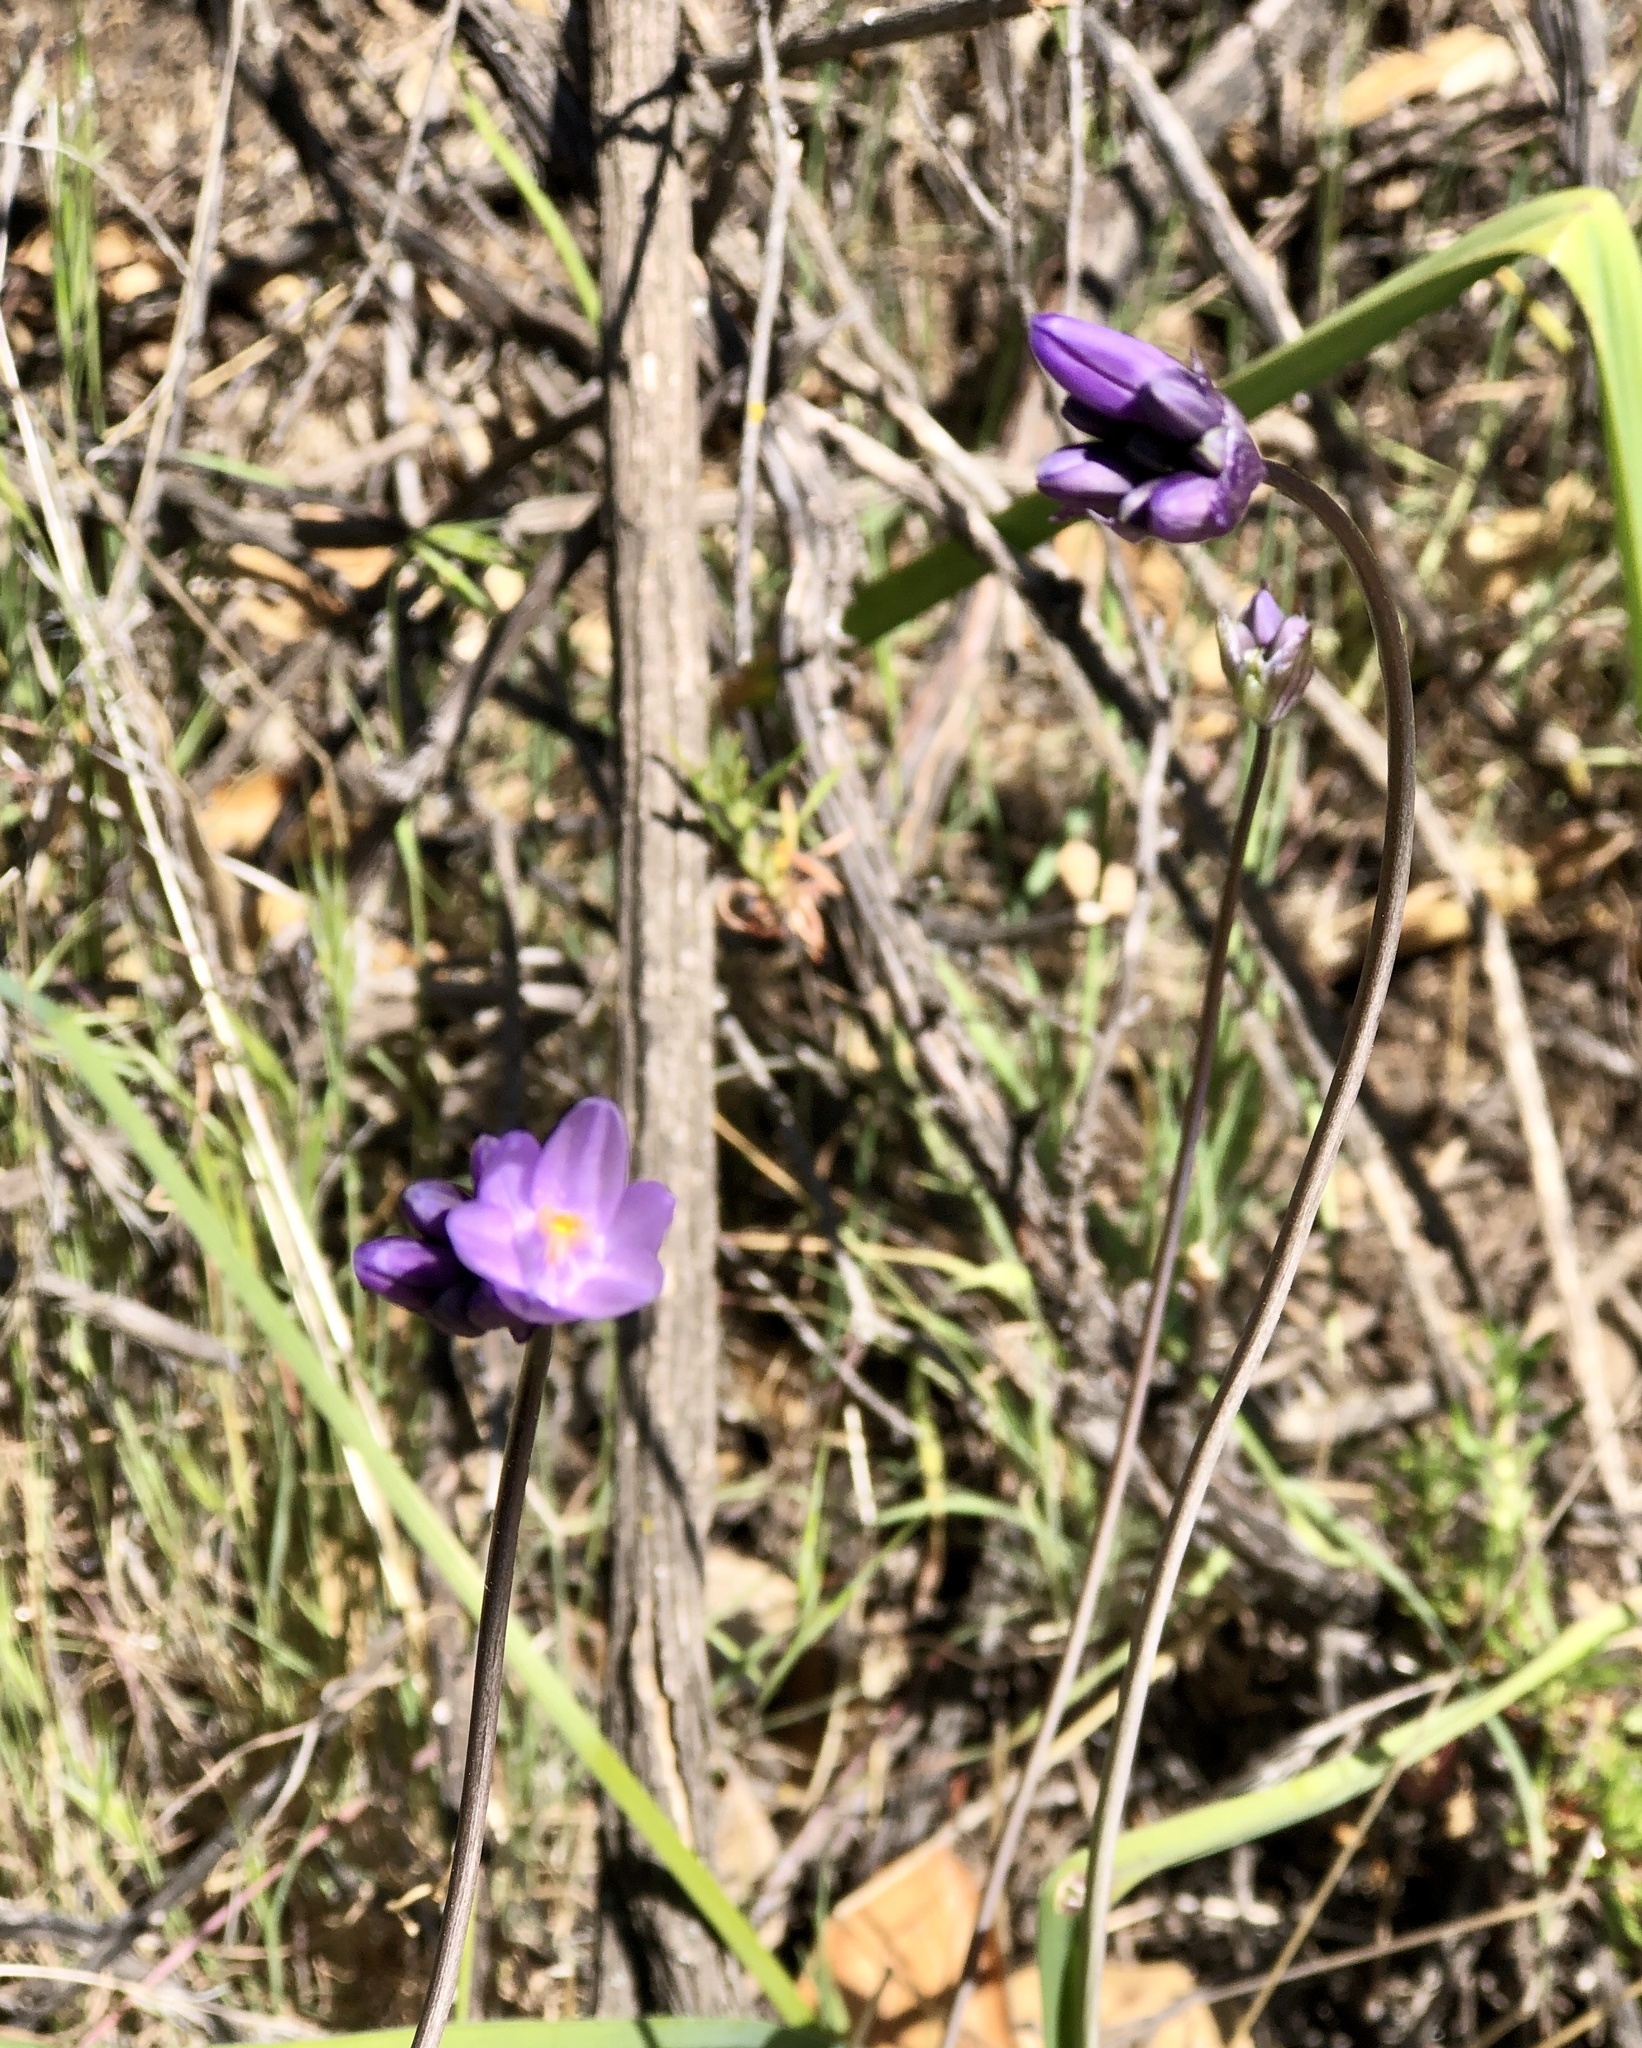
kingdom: Plantae
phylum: Tracheophyta
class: Liliopsida
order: Asparagales
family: Asparagaceae
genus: Dipterostemon
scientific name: Dipterostemon capitatus
